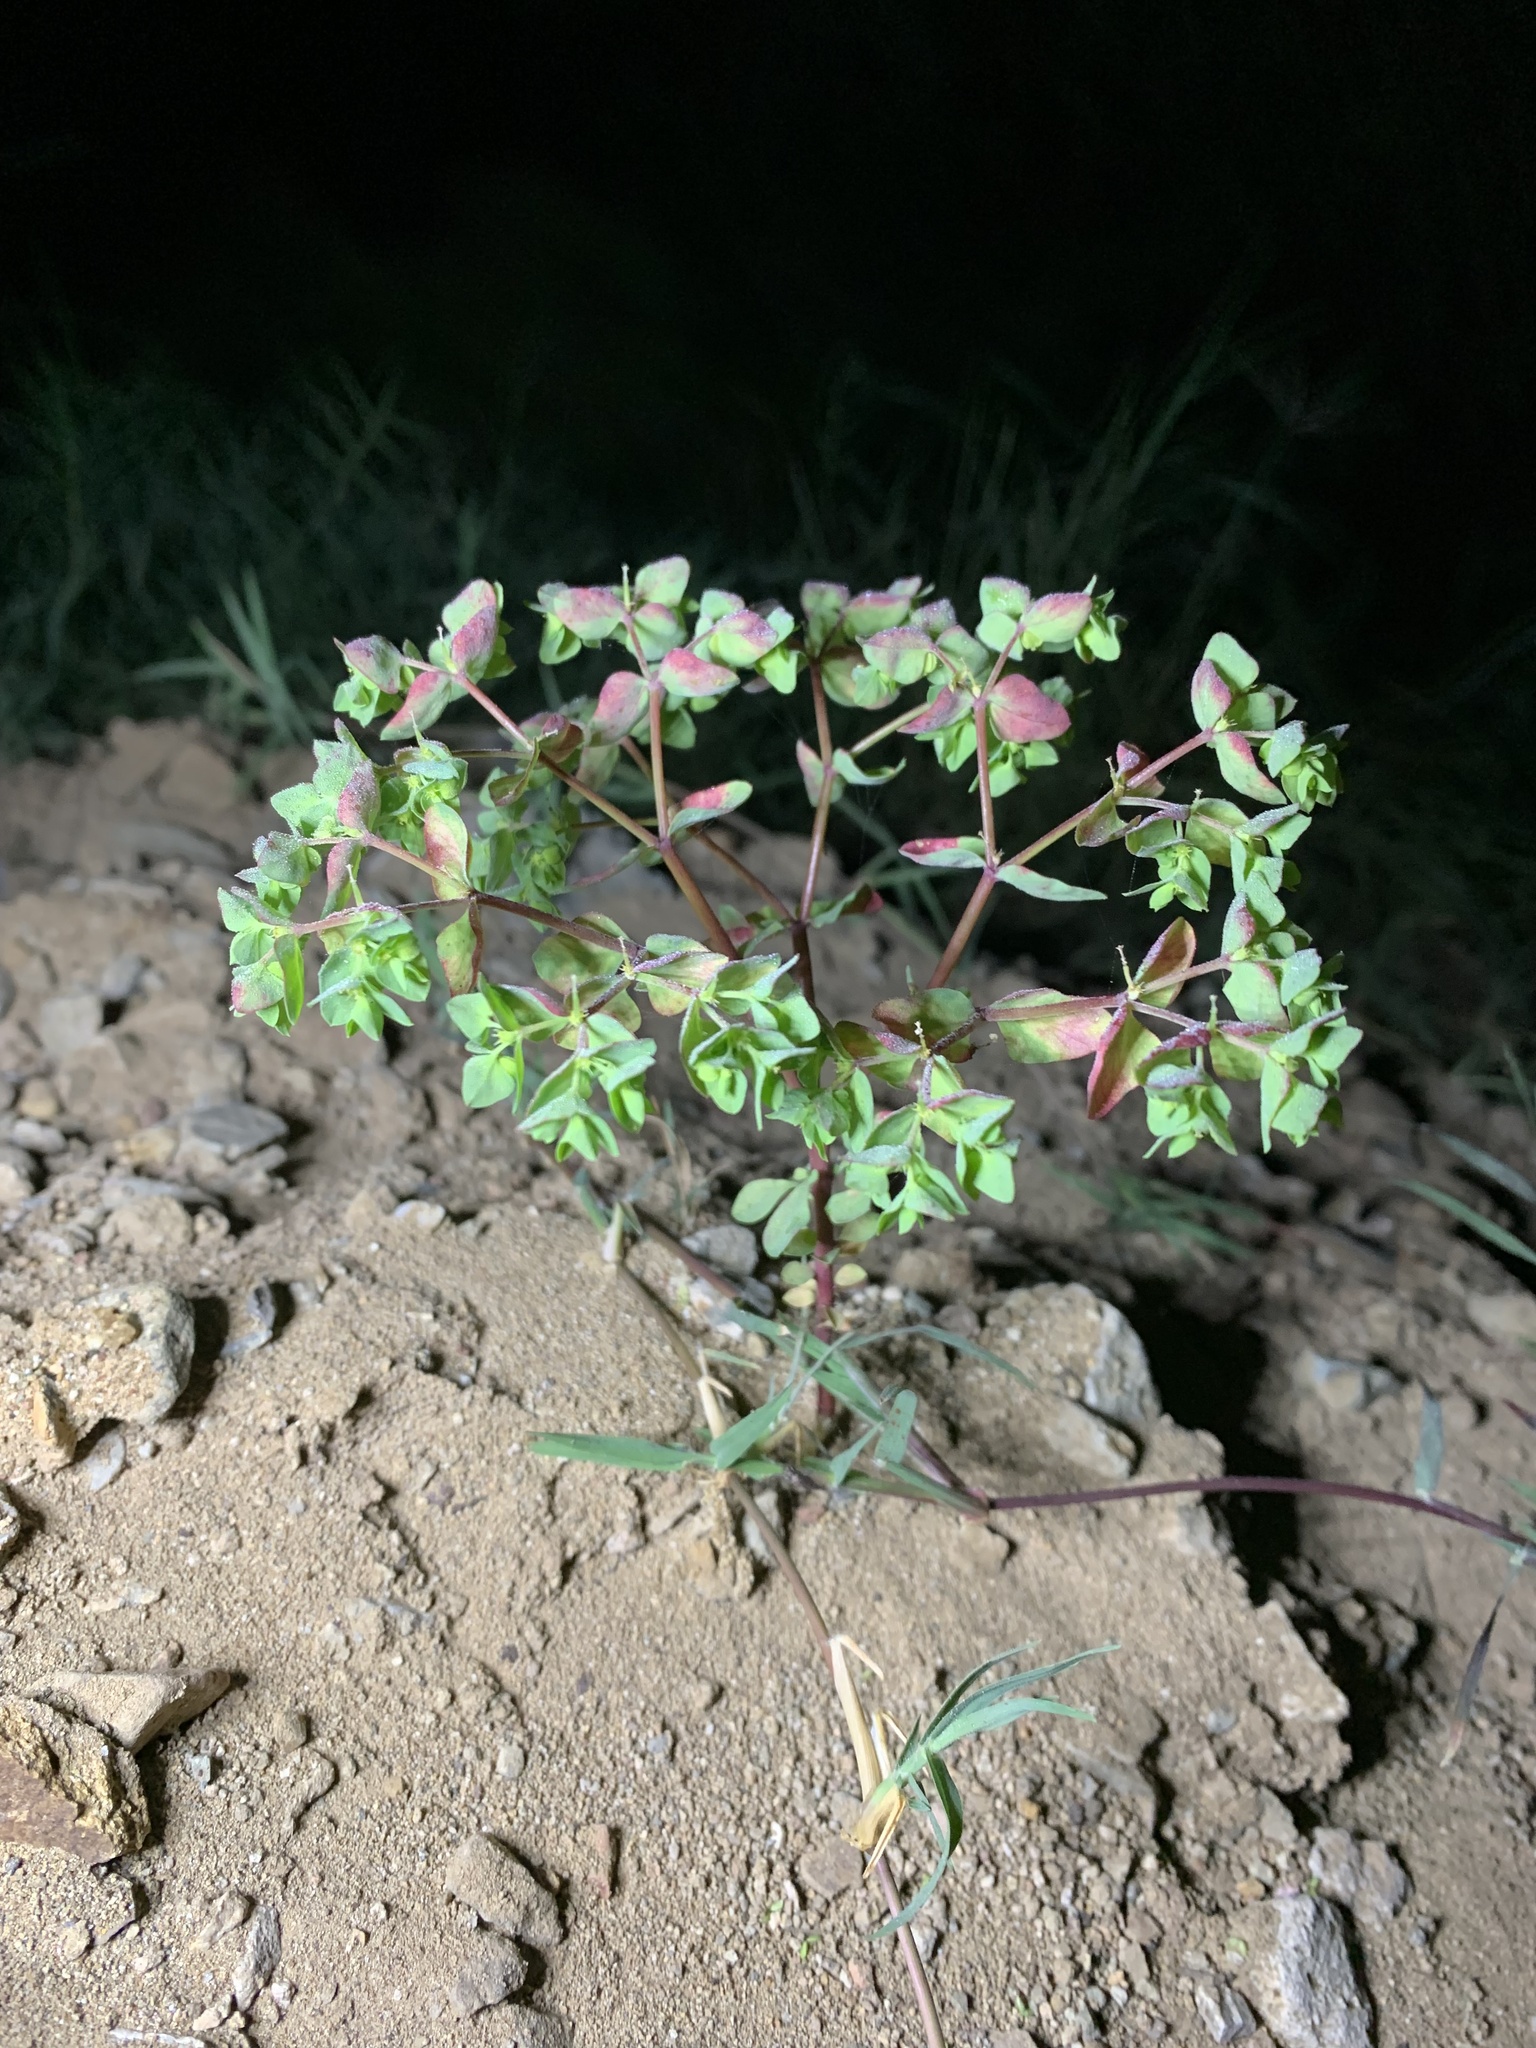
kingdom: Plantae
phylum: Tracheophyta
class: Magnoliopsida
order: Malpighiales
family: Euphorbiaceae
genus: Euphorbia
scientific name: Euphorbia peplus
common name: Petty spurge
